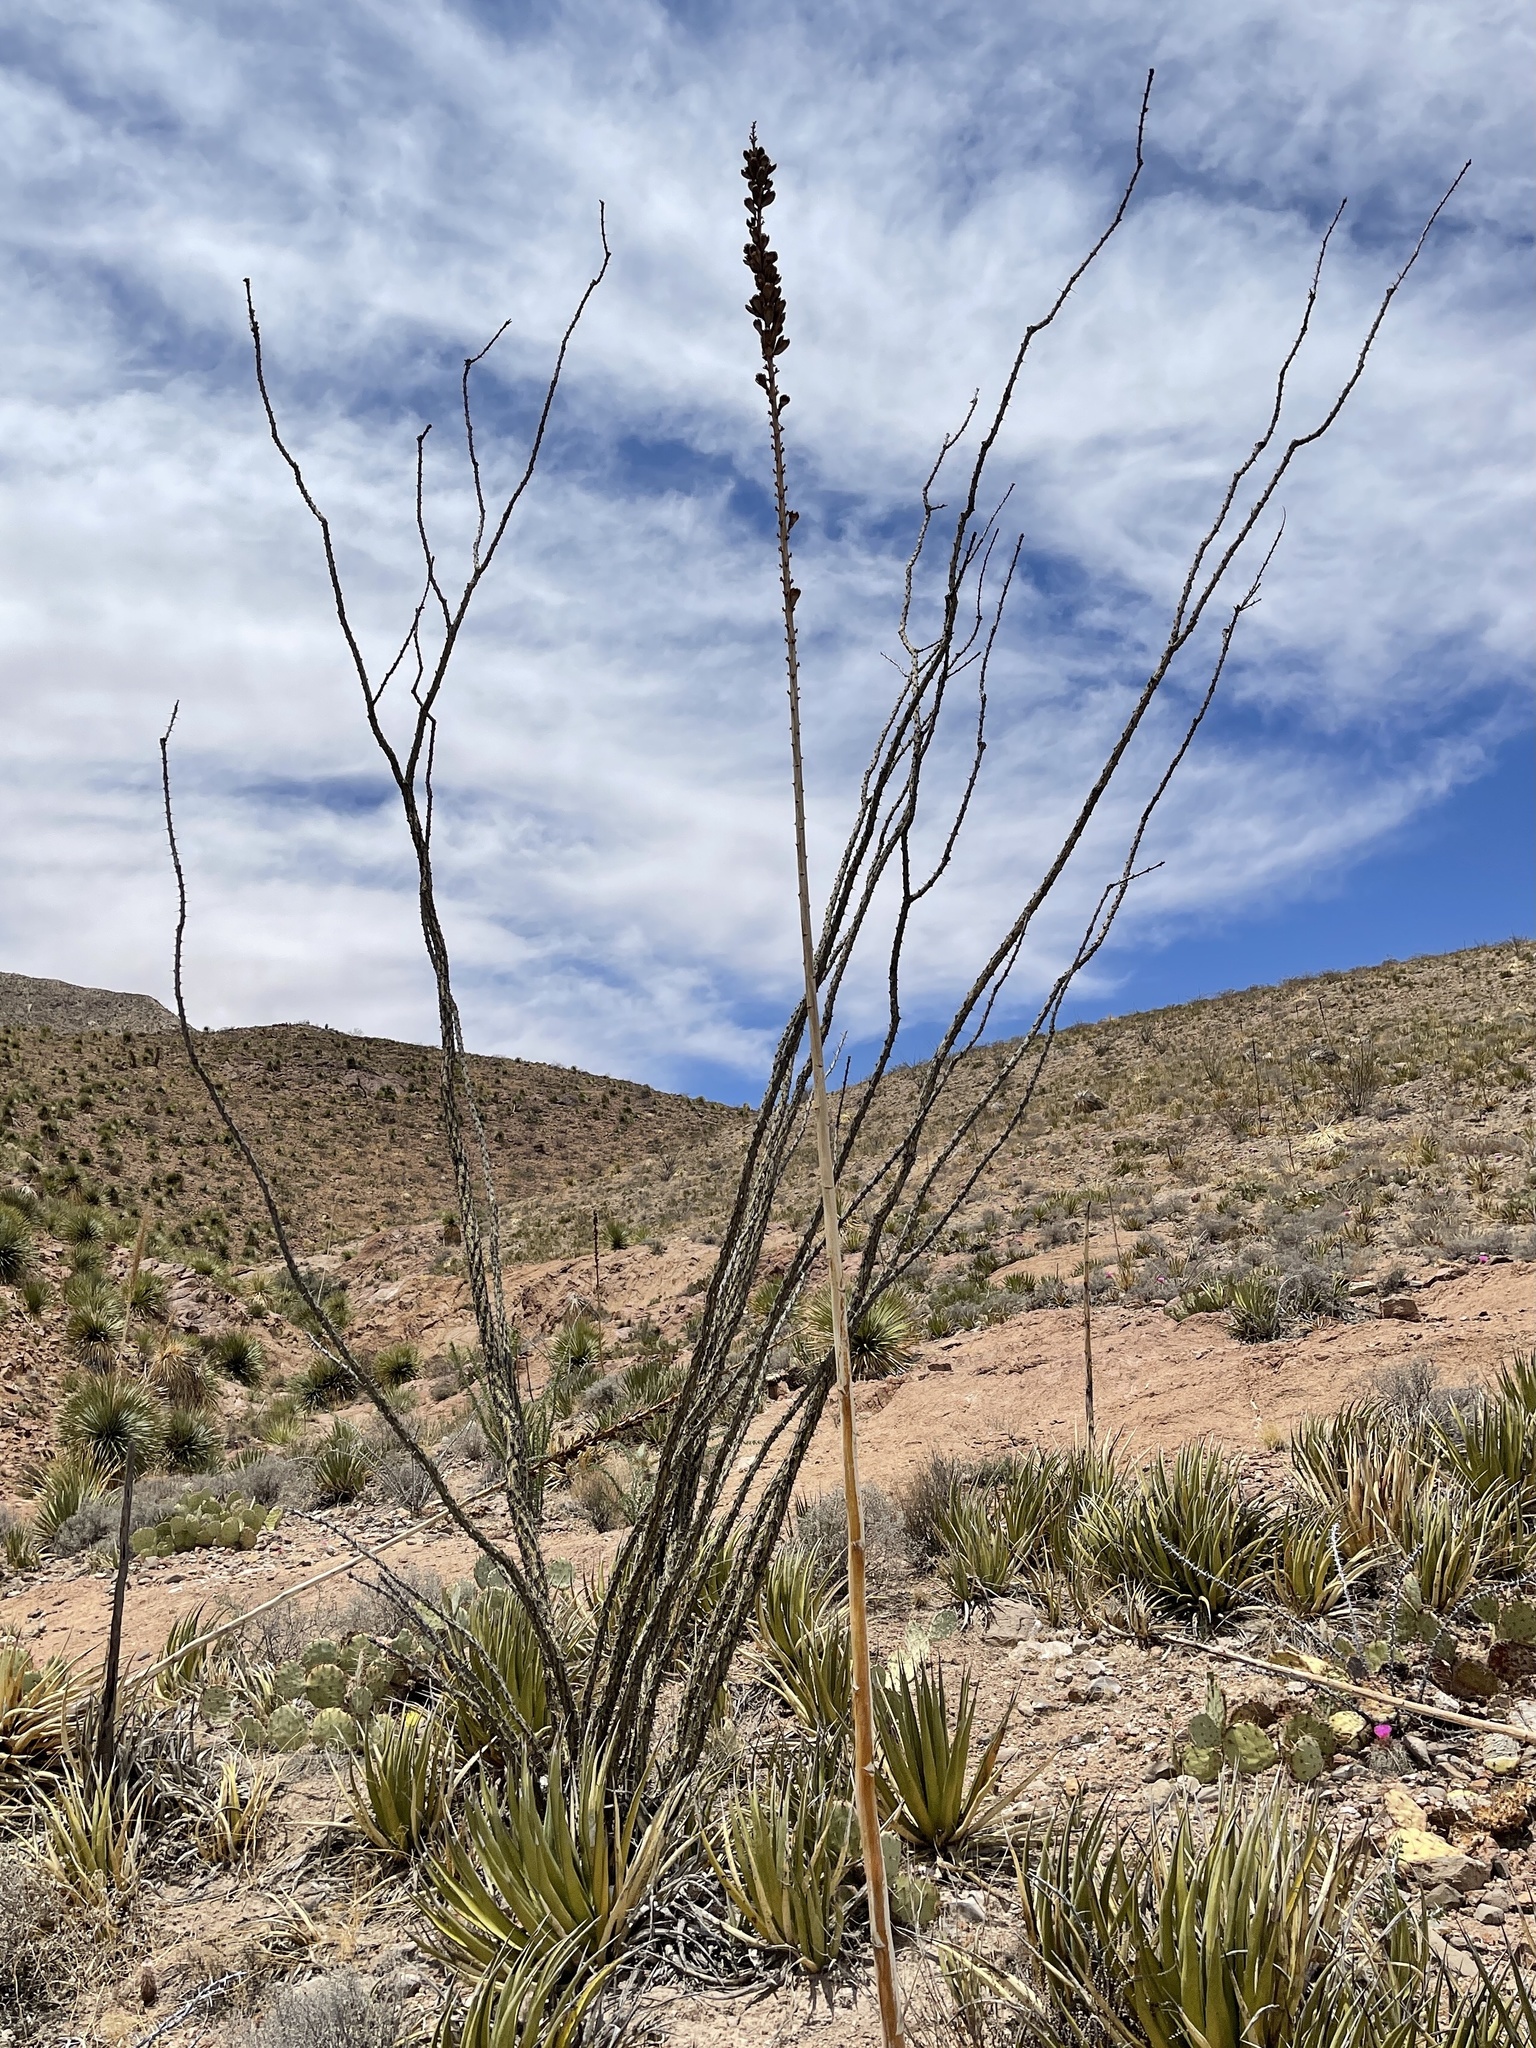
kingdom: Plantae
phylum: Tracheophyta
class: Magnoliopsida
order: Ericales
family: Fouquieriaceae
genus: Fouquieria
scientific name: Fouquieria splendens
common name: Vine-cactus
